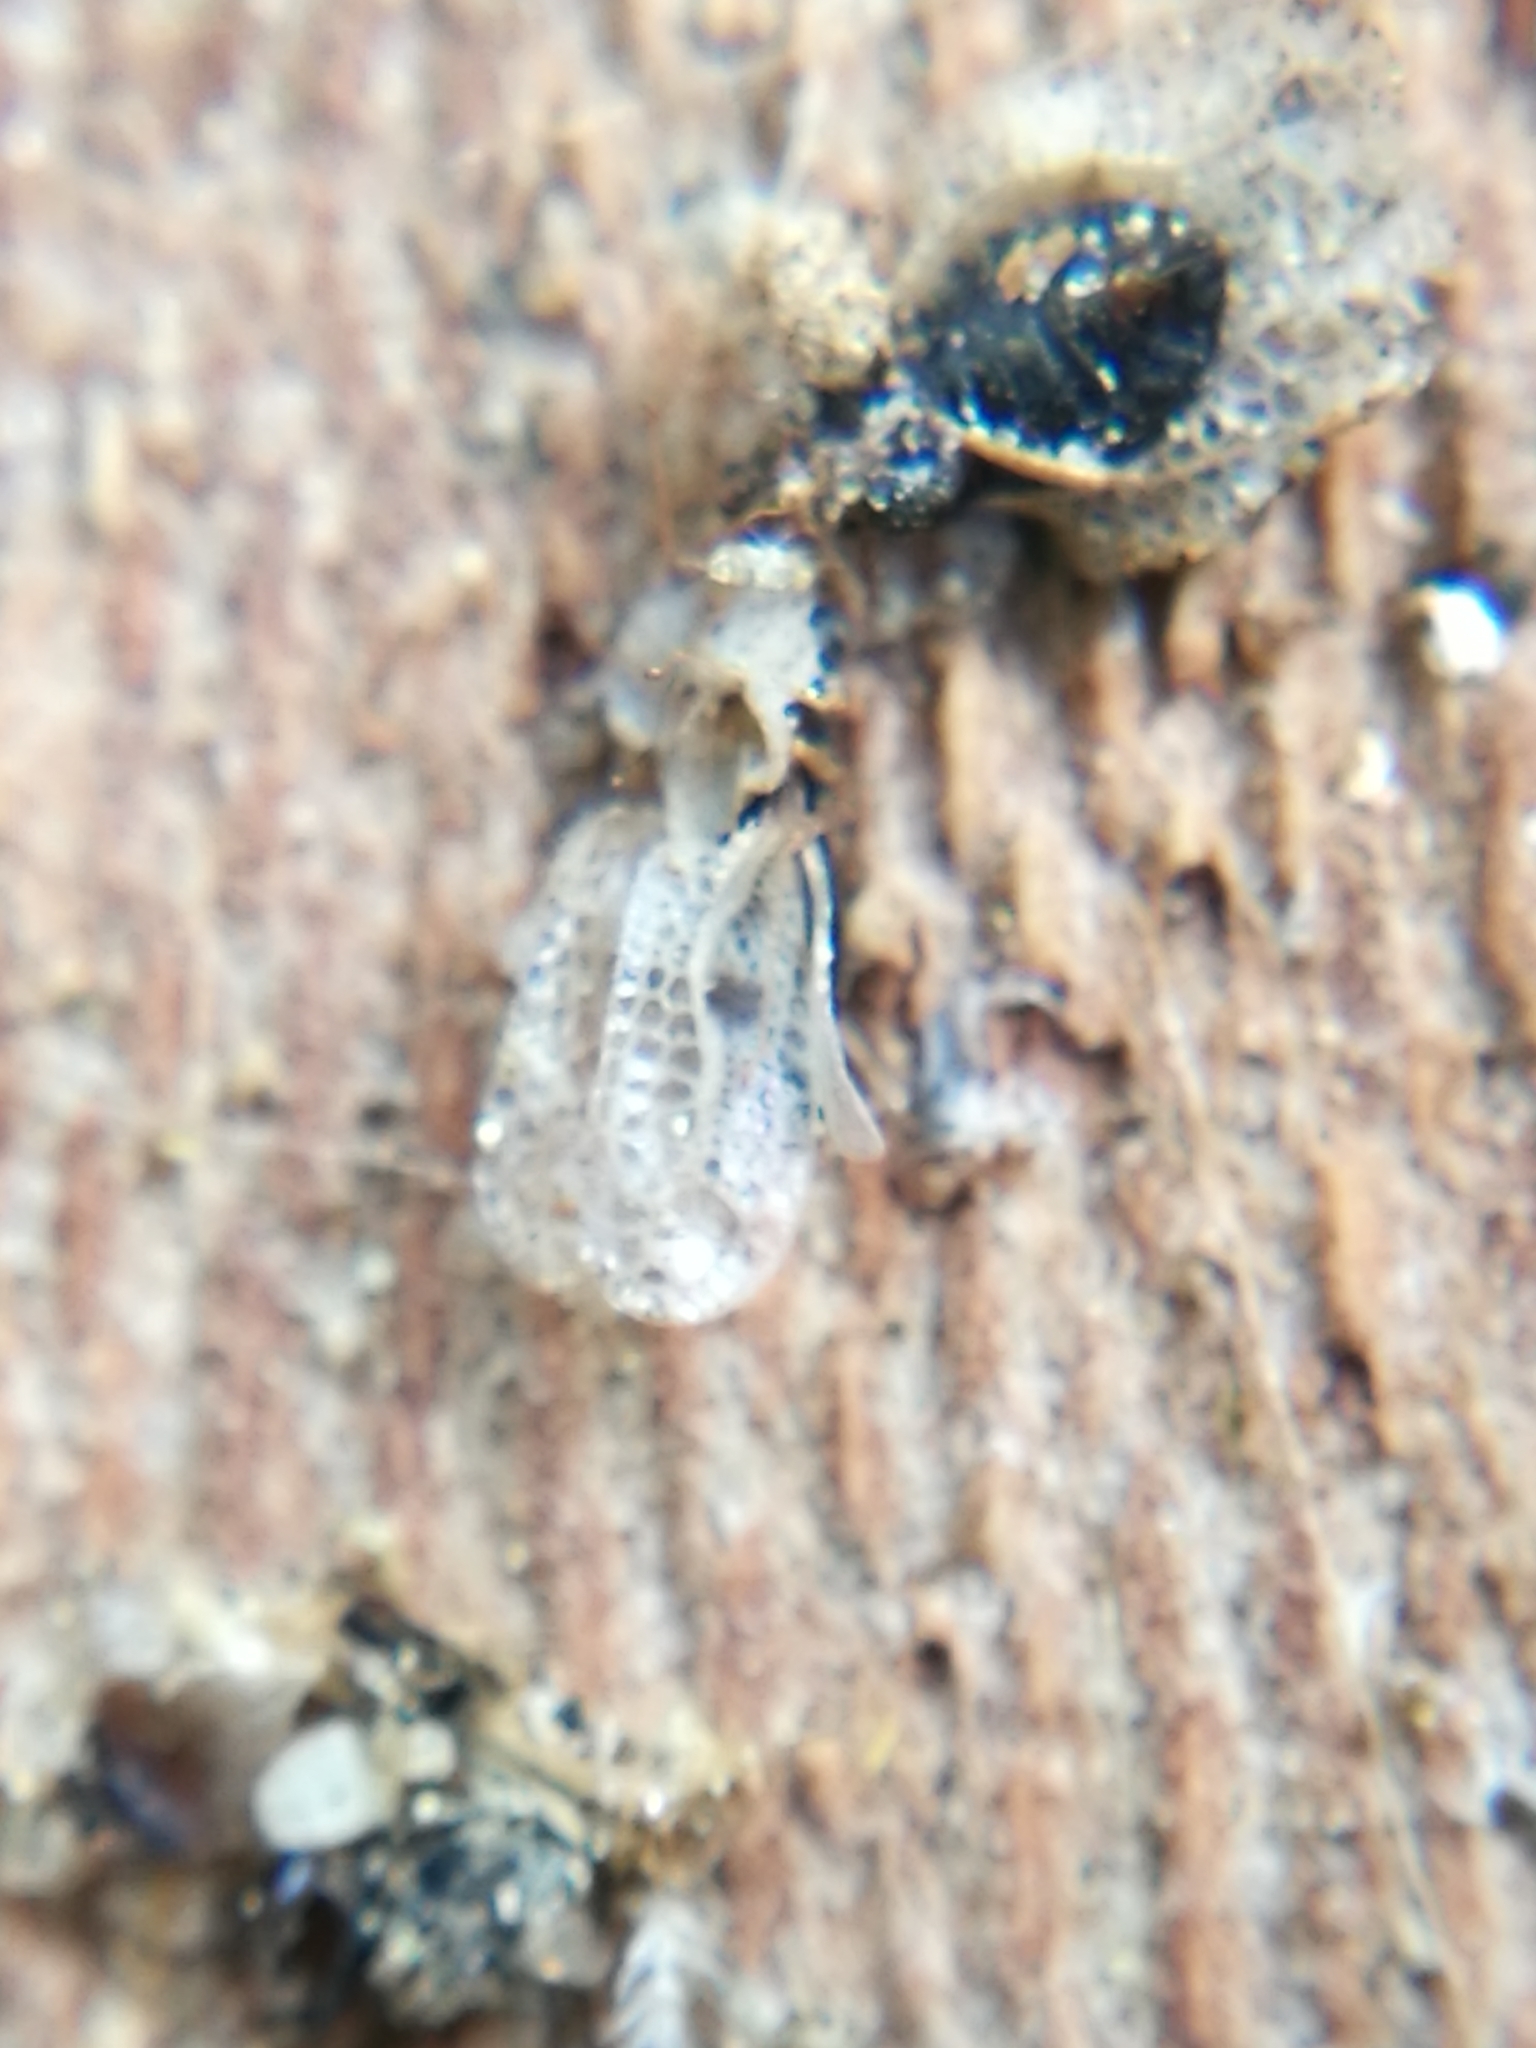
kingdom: Animalia
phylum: Arthropoda
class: Insecta
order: Hemiptera
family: Tingidae
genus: Corythucha
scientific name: Corythucha ciliata
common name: Sycamore lace bug
